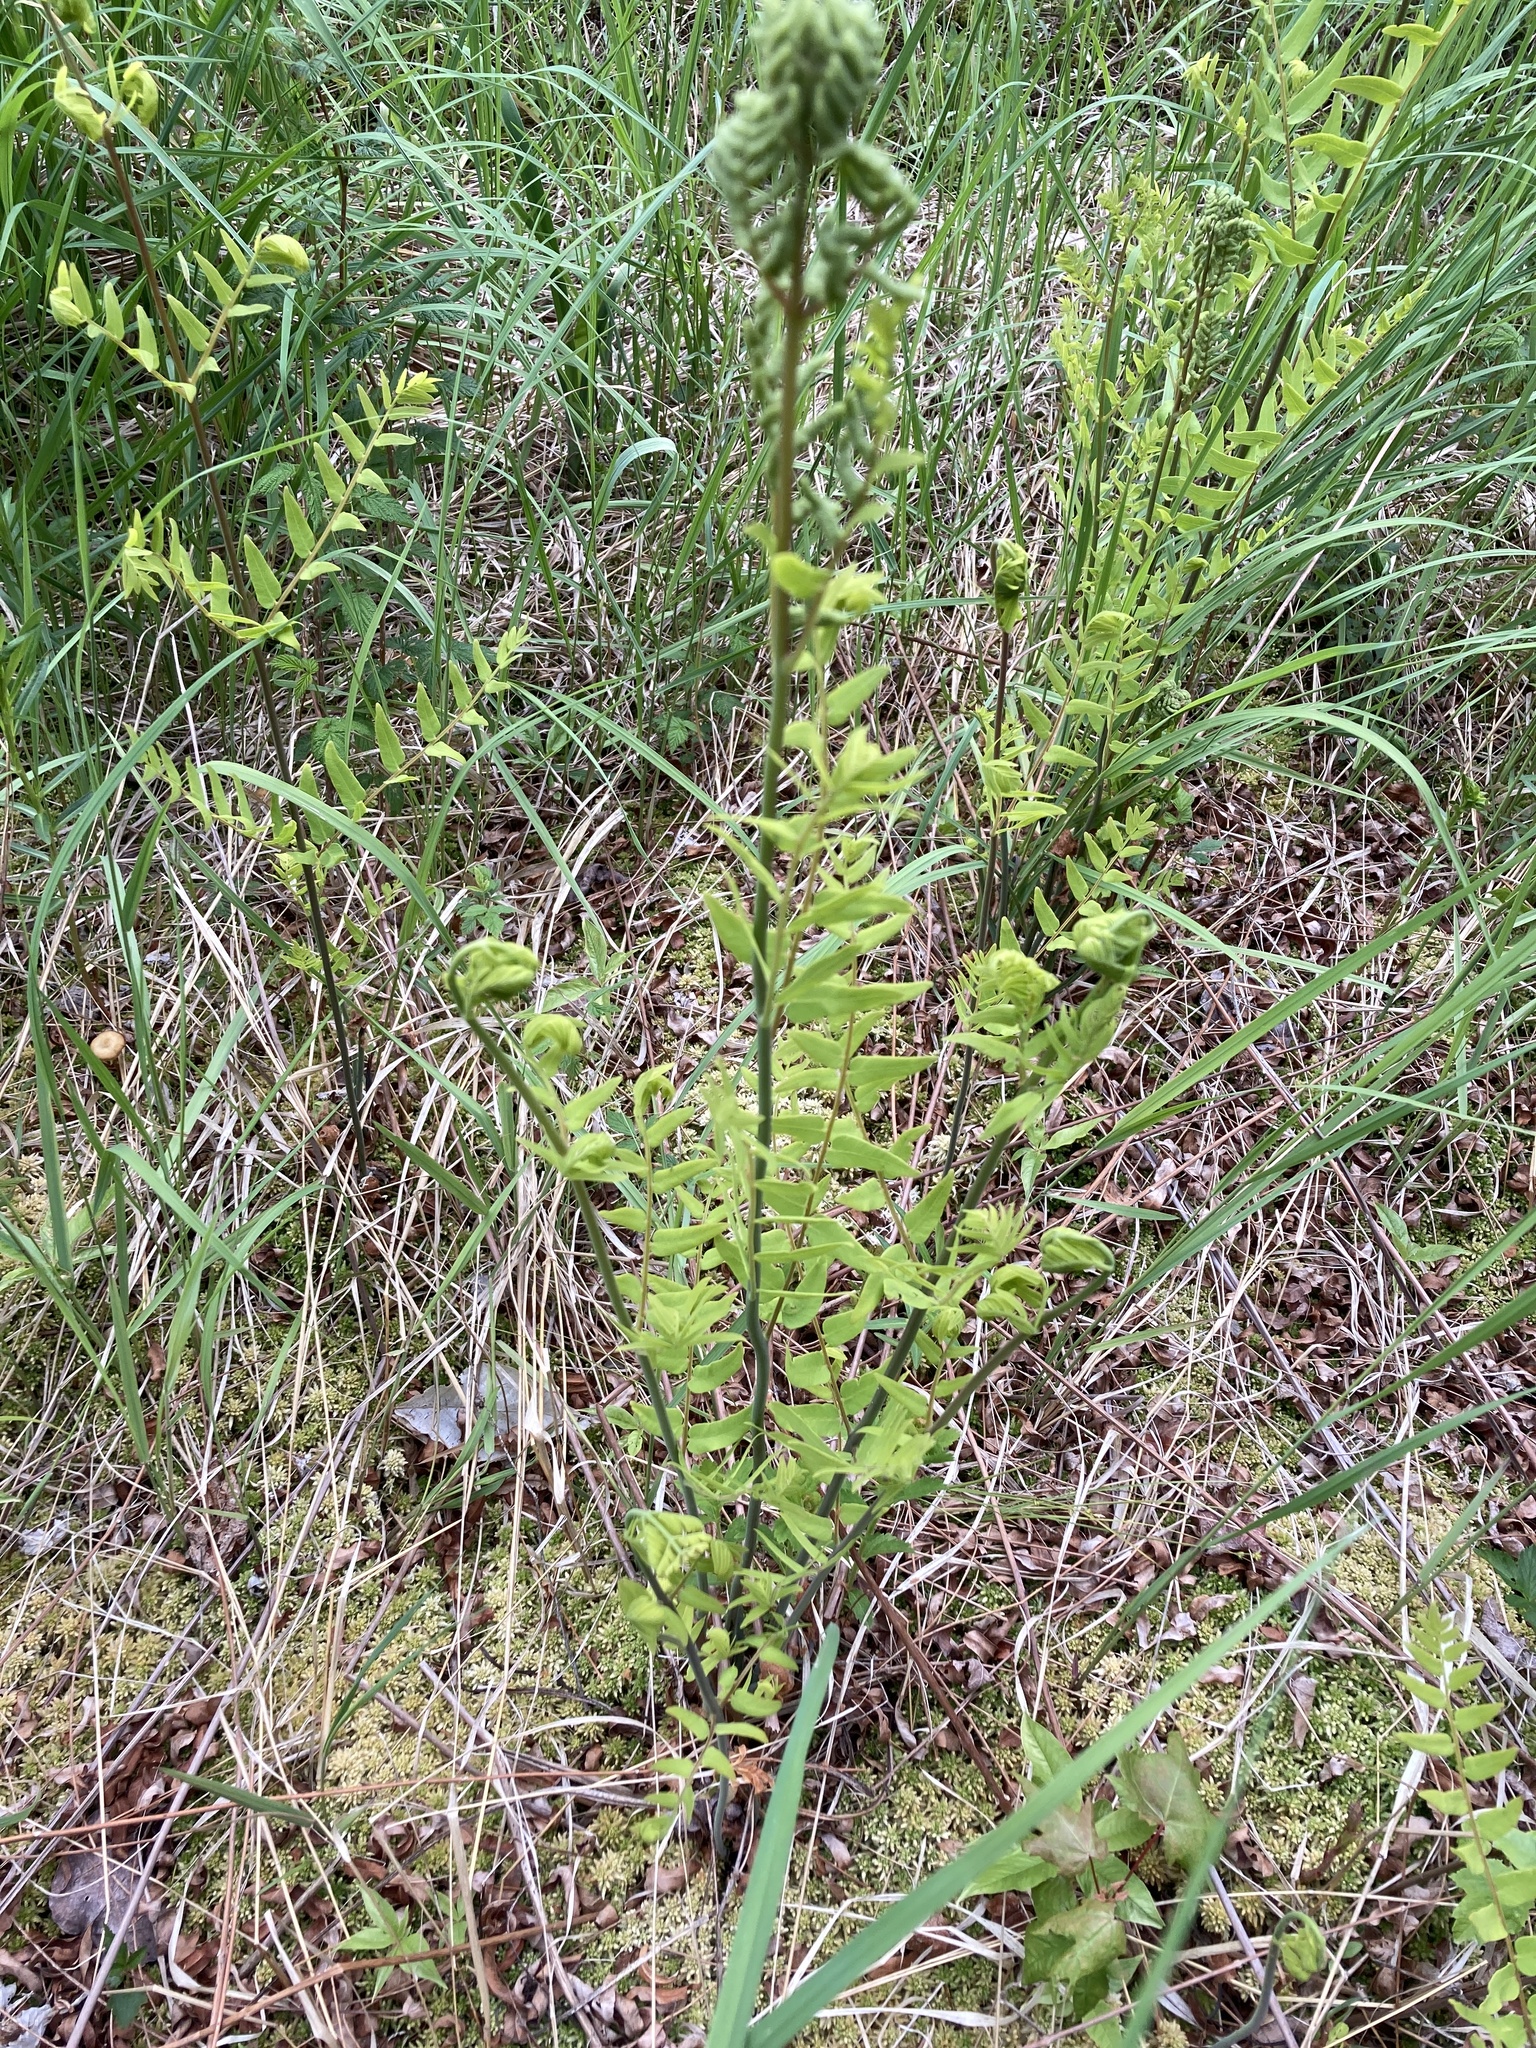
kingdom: Plantae
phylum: Tracheophyta
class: Polypodiopsida
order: Osmundales
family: Osmundaceae
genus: Osmunda
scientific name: Osmunda spectabilis
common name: American royal fern
